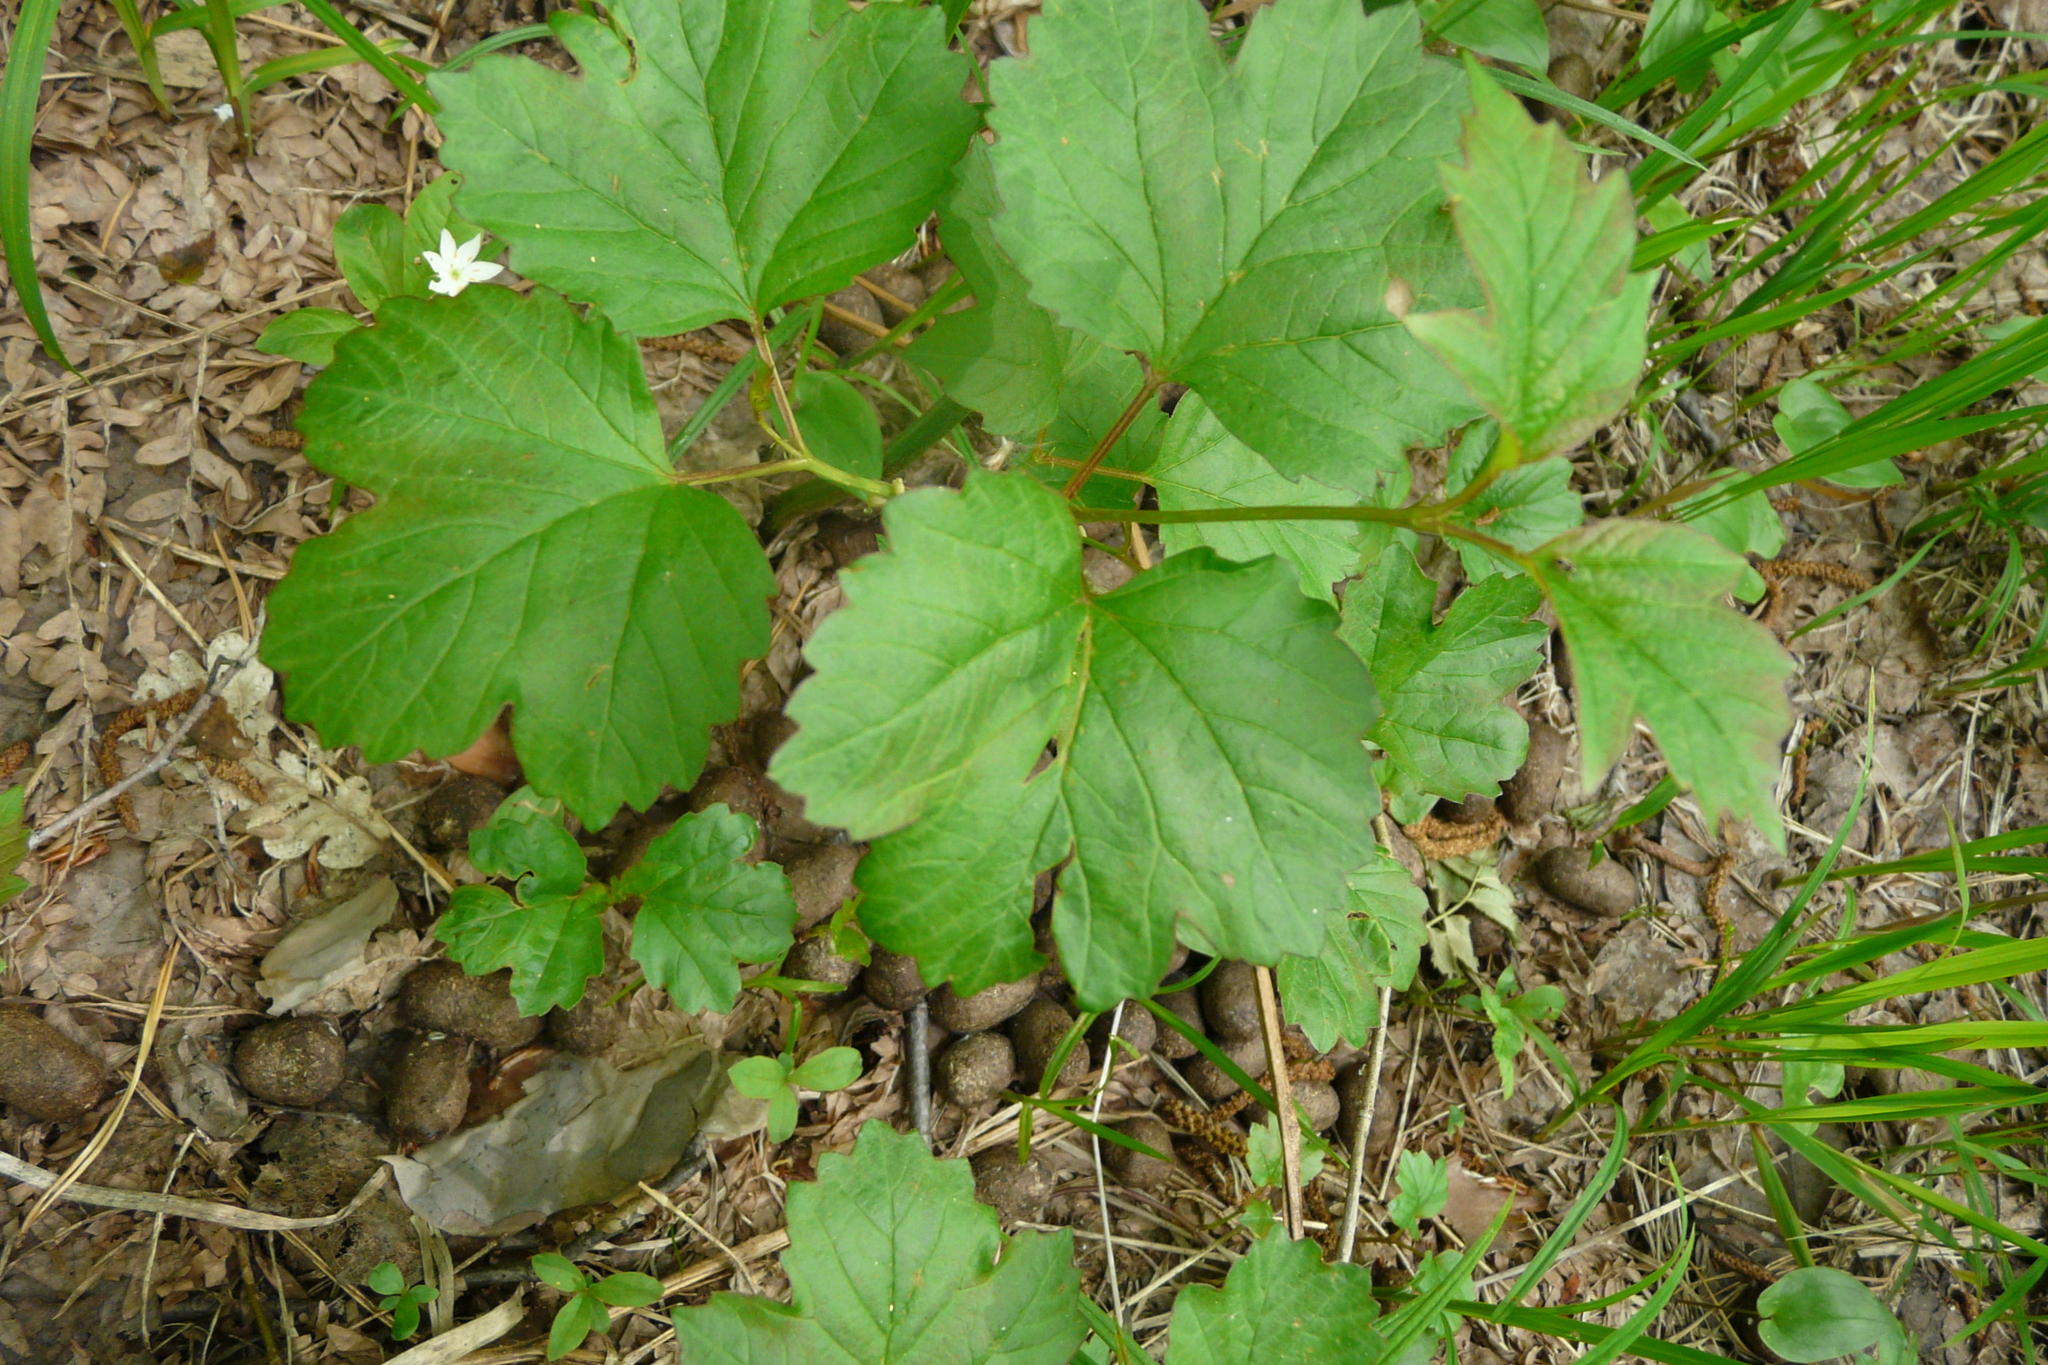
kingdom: Plantae
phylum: Tracheophyta
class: Magnoliopsida
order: Dipsacales
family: Viburnaceae
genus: Viburnum
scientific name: Viburnum opulus
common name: Guelder-rose
